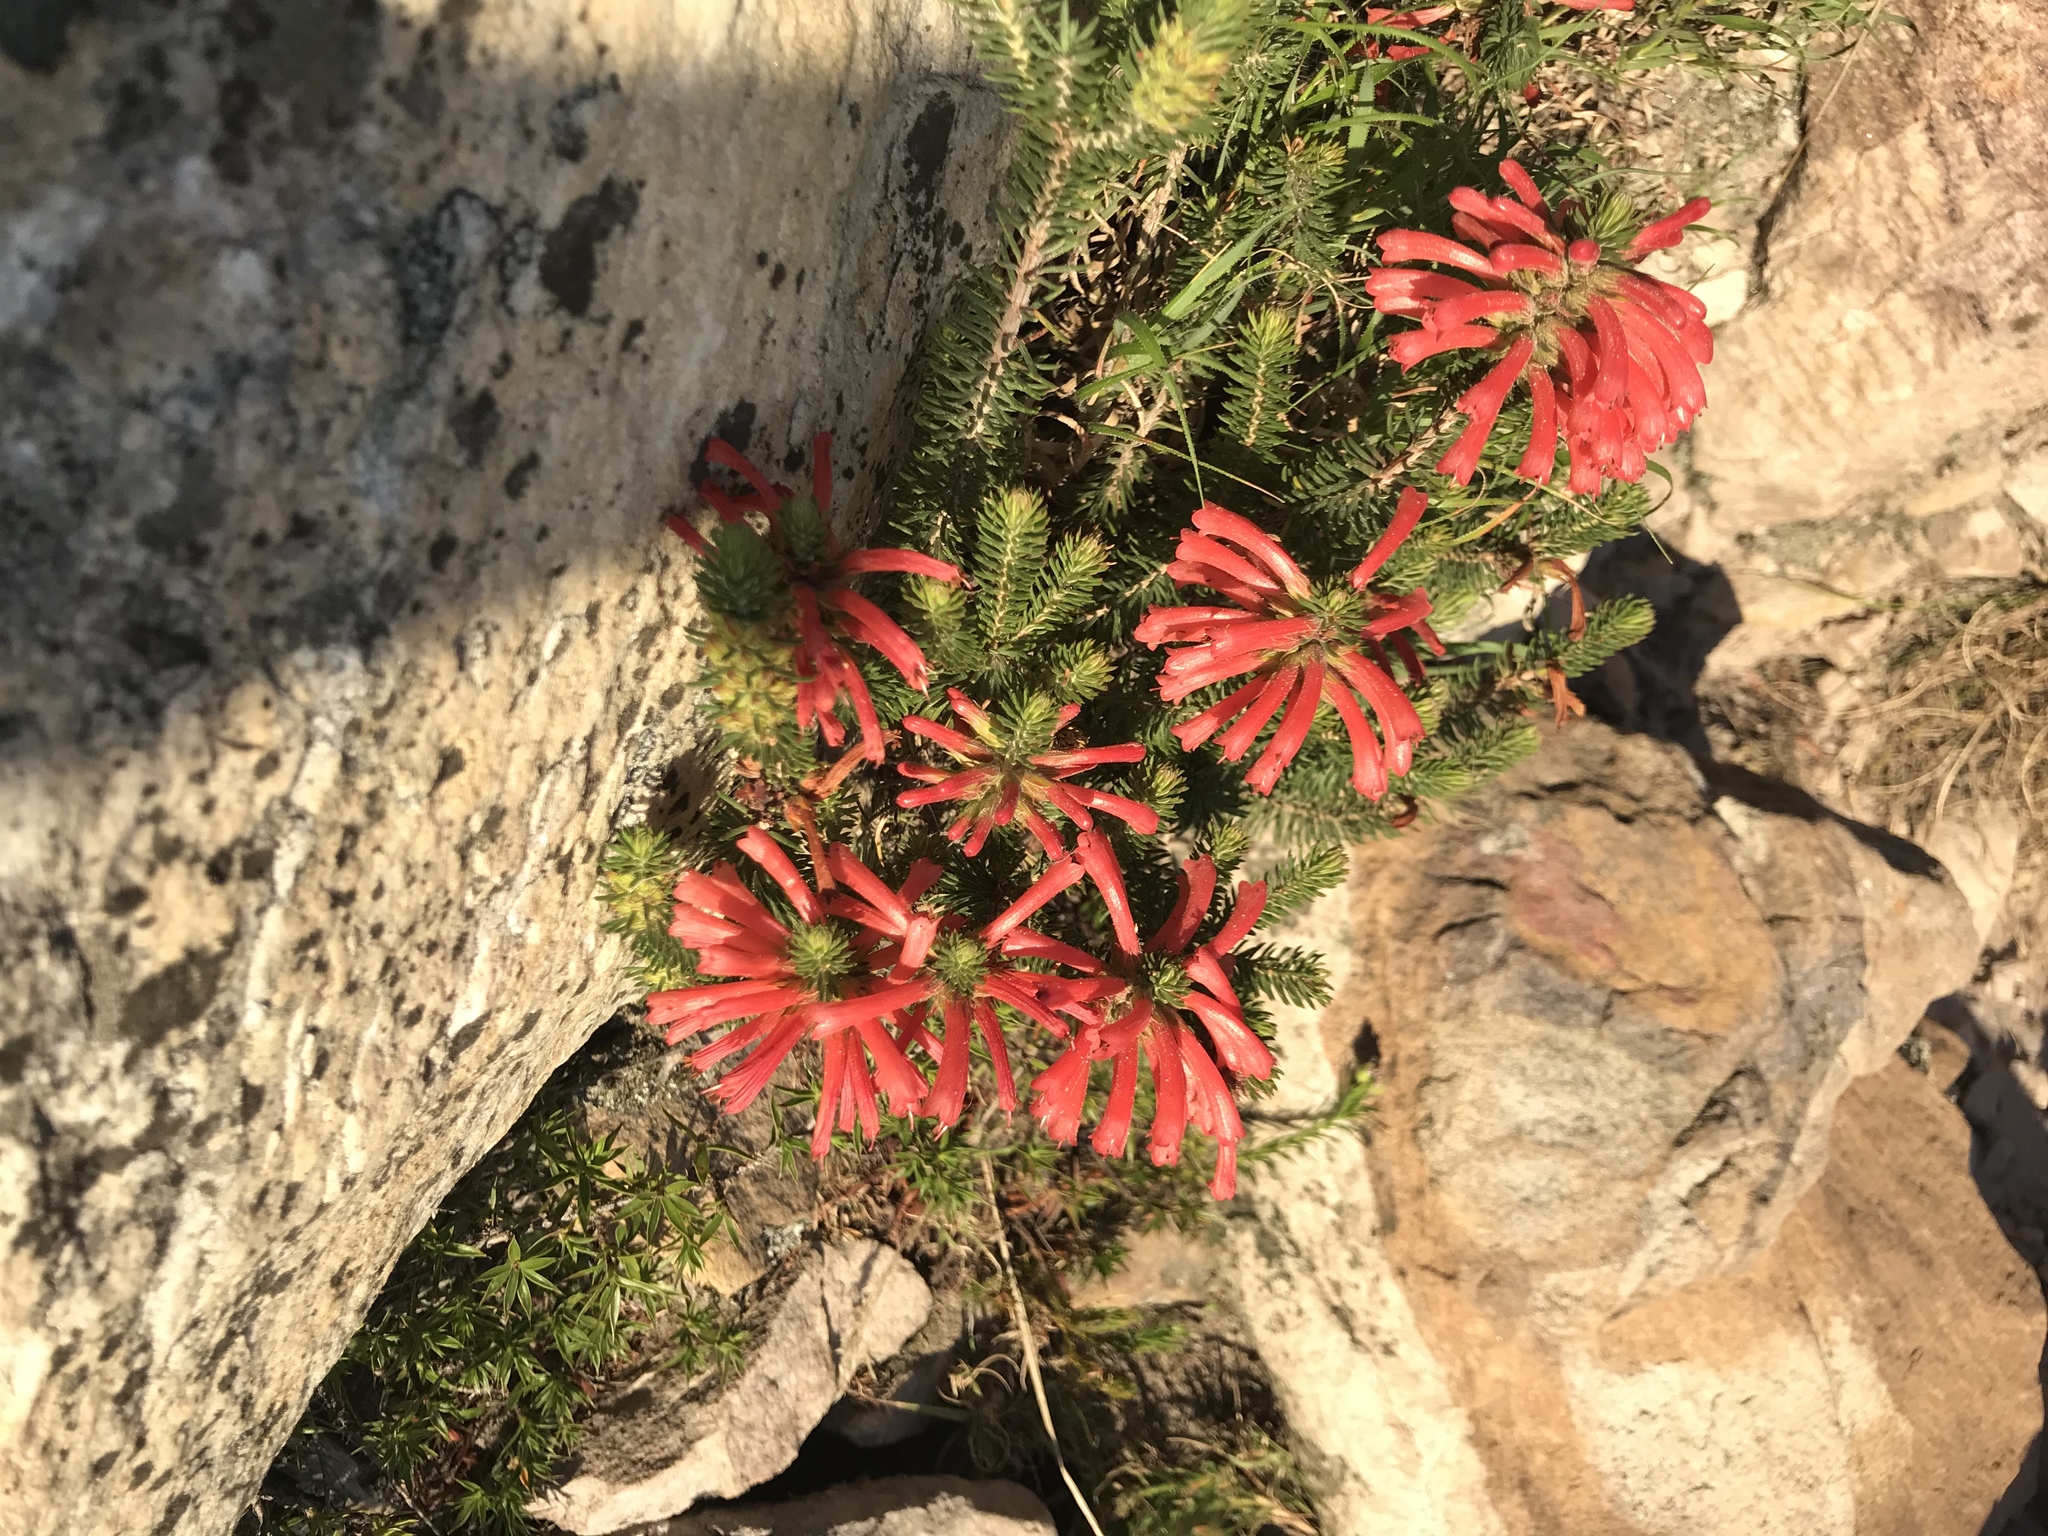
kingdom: Plantae
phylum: Tracheophyta
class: Magnoliopsida
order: Ericales
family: Ericaceae
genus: Erica
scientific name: Erica abietina
